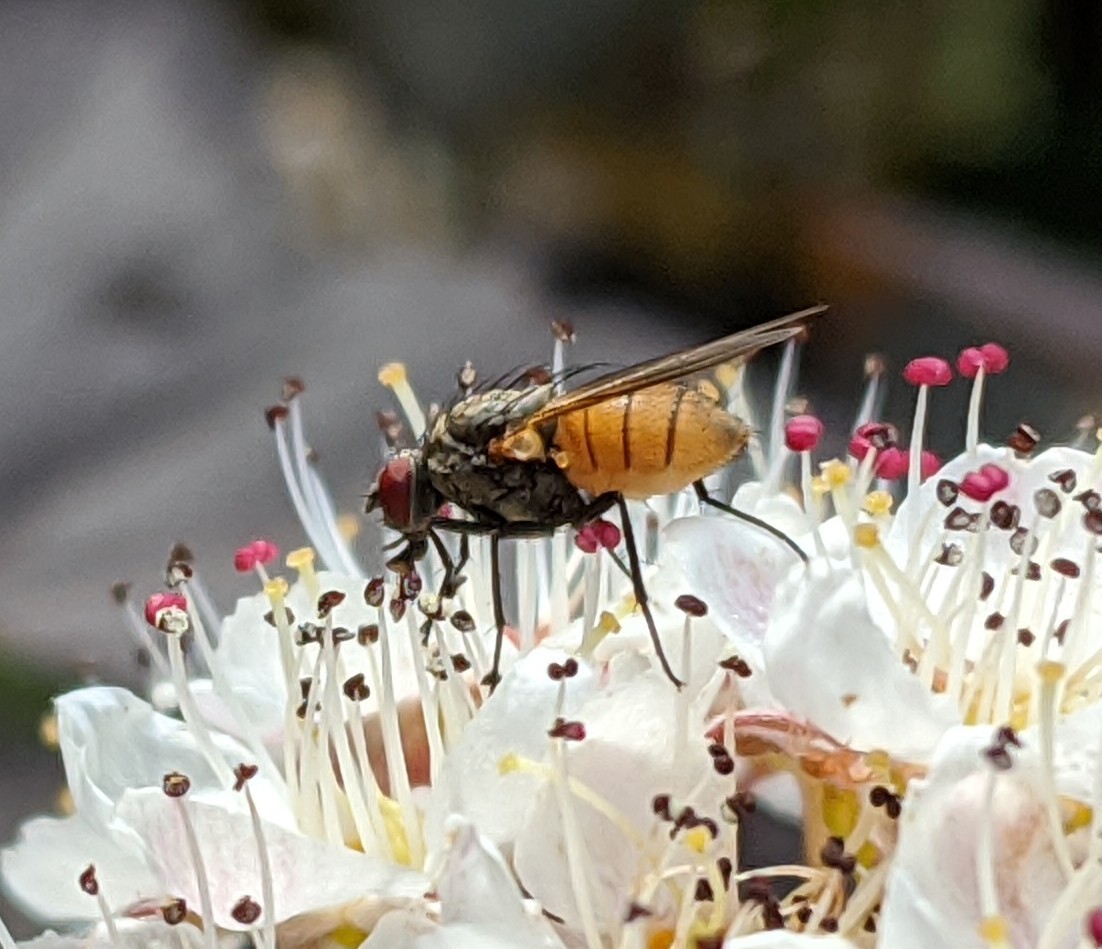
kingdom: Animalia
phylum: Arthropoda
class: Insecta
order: Diptera
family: Muscidae
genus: Thricops
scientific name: Thricops semicinereus
